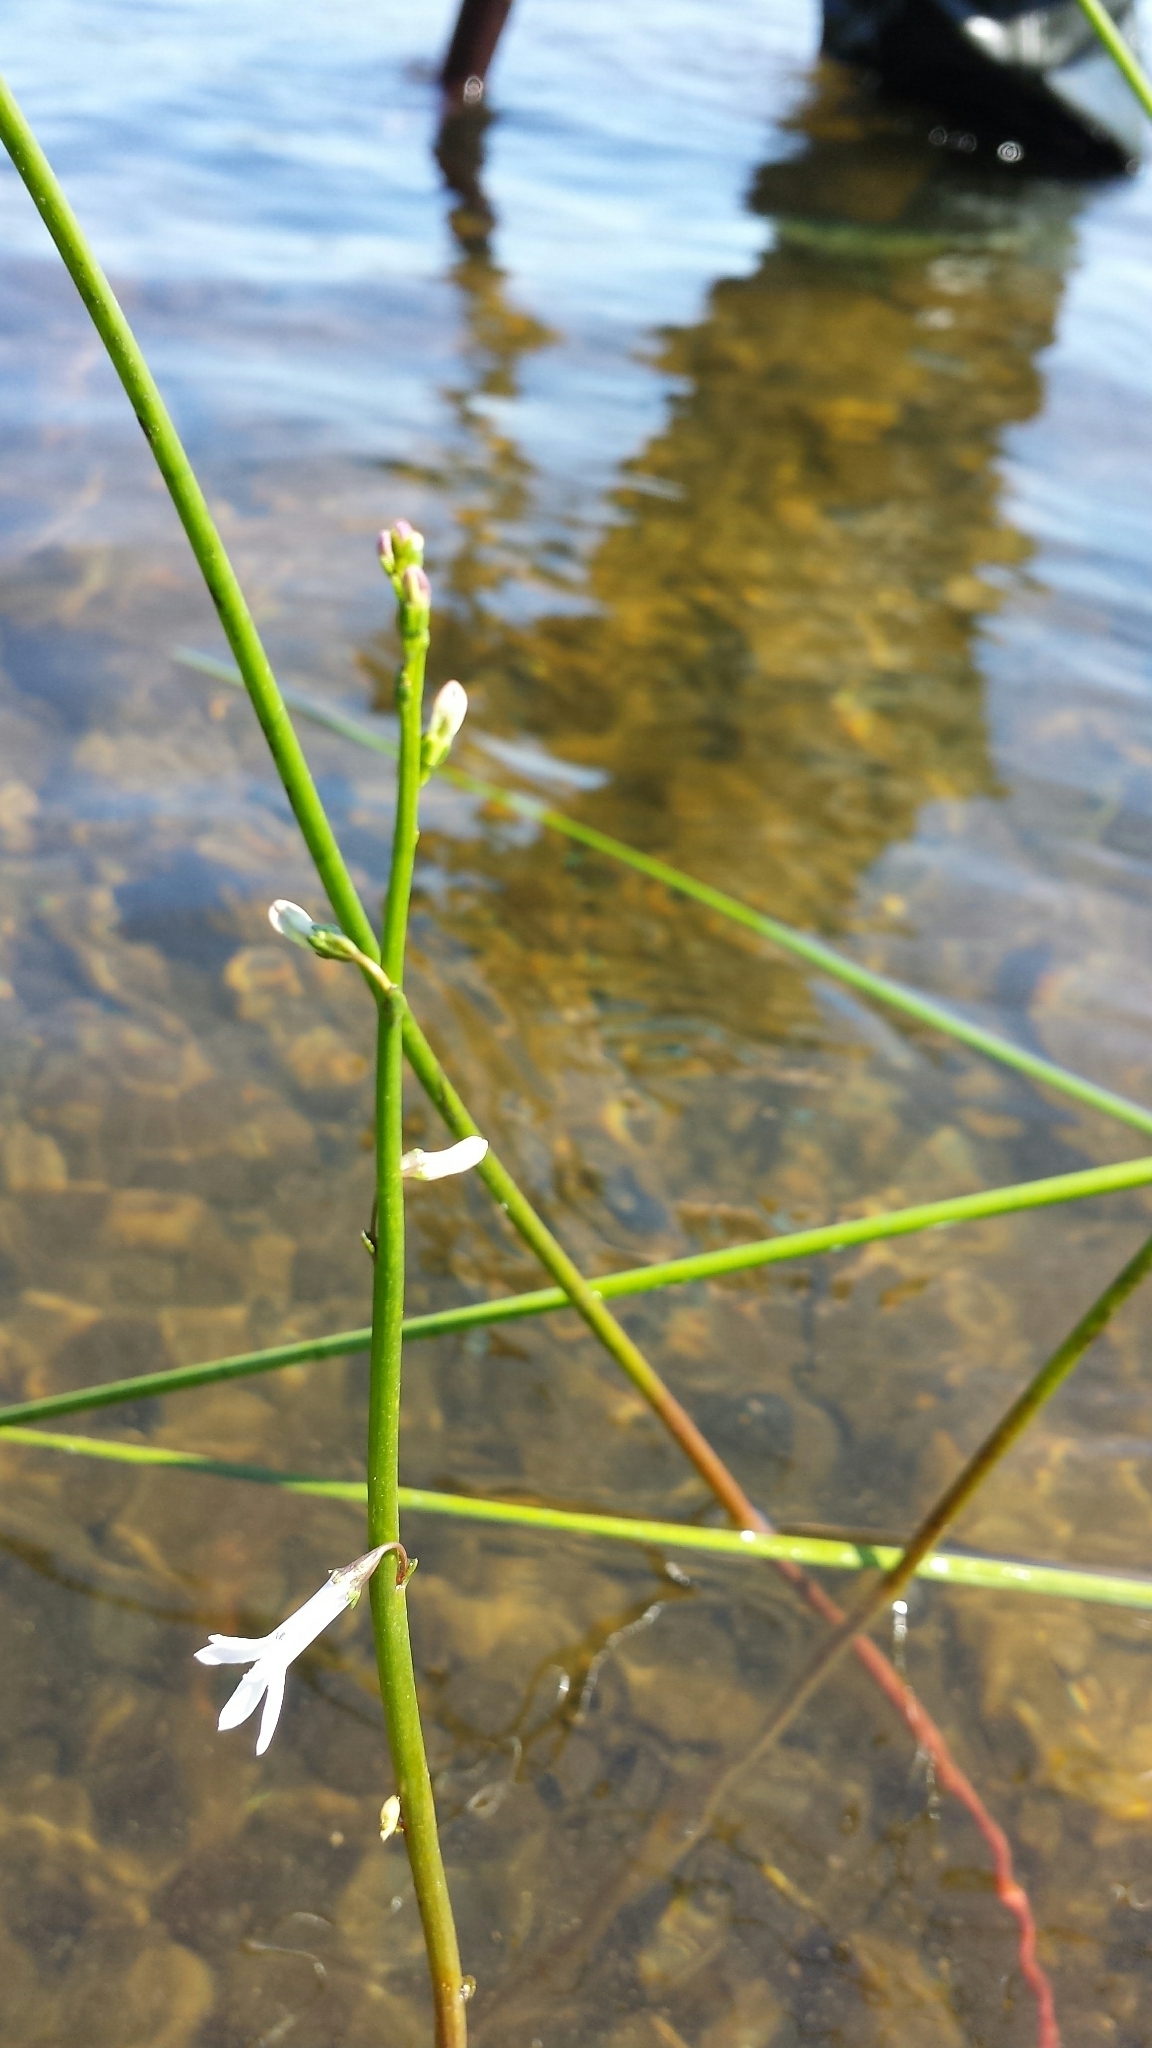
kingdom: Plantae
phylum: Tracheophyta
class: Magnoliopsida
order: Asterales
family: Campanulaceae
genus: Lobelia
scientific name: Lobelia dortmanna
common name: Water lobelia
